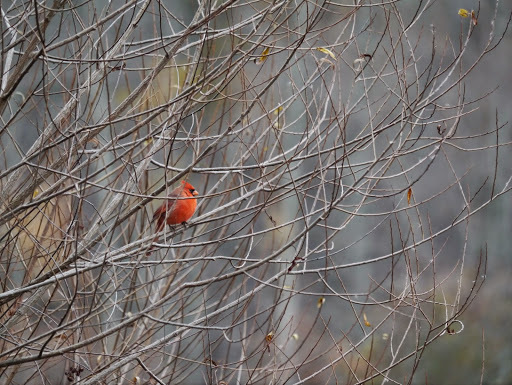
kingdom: Animalia
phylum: Chordata
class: Aves
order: Passeriformes
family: Cardinalidae
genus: Cardinalis
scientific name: Cardinalis cardinalis
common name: Northern cardinal
